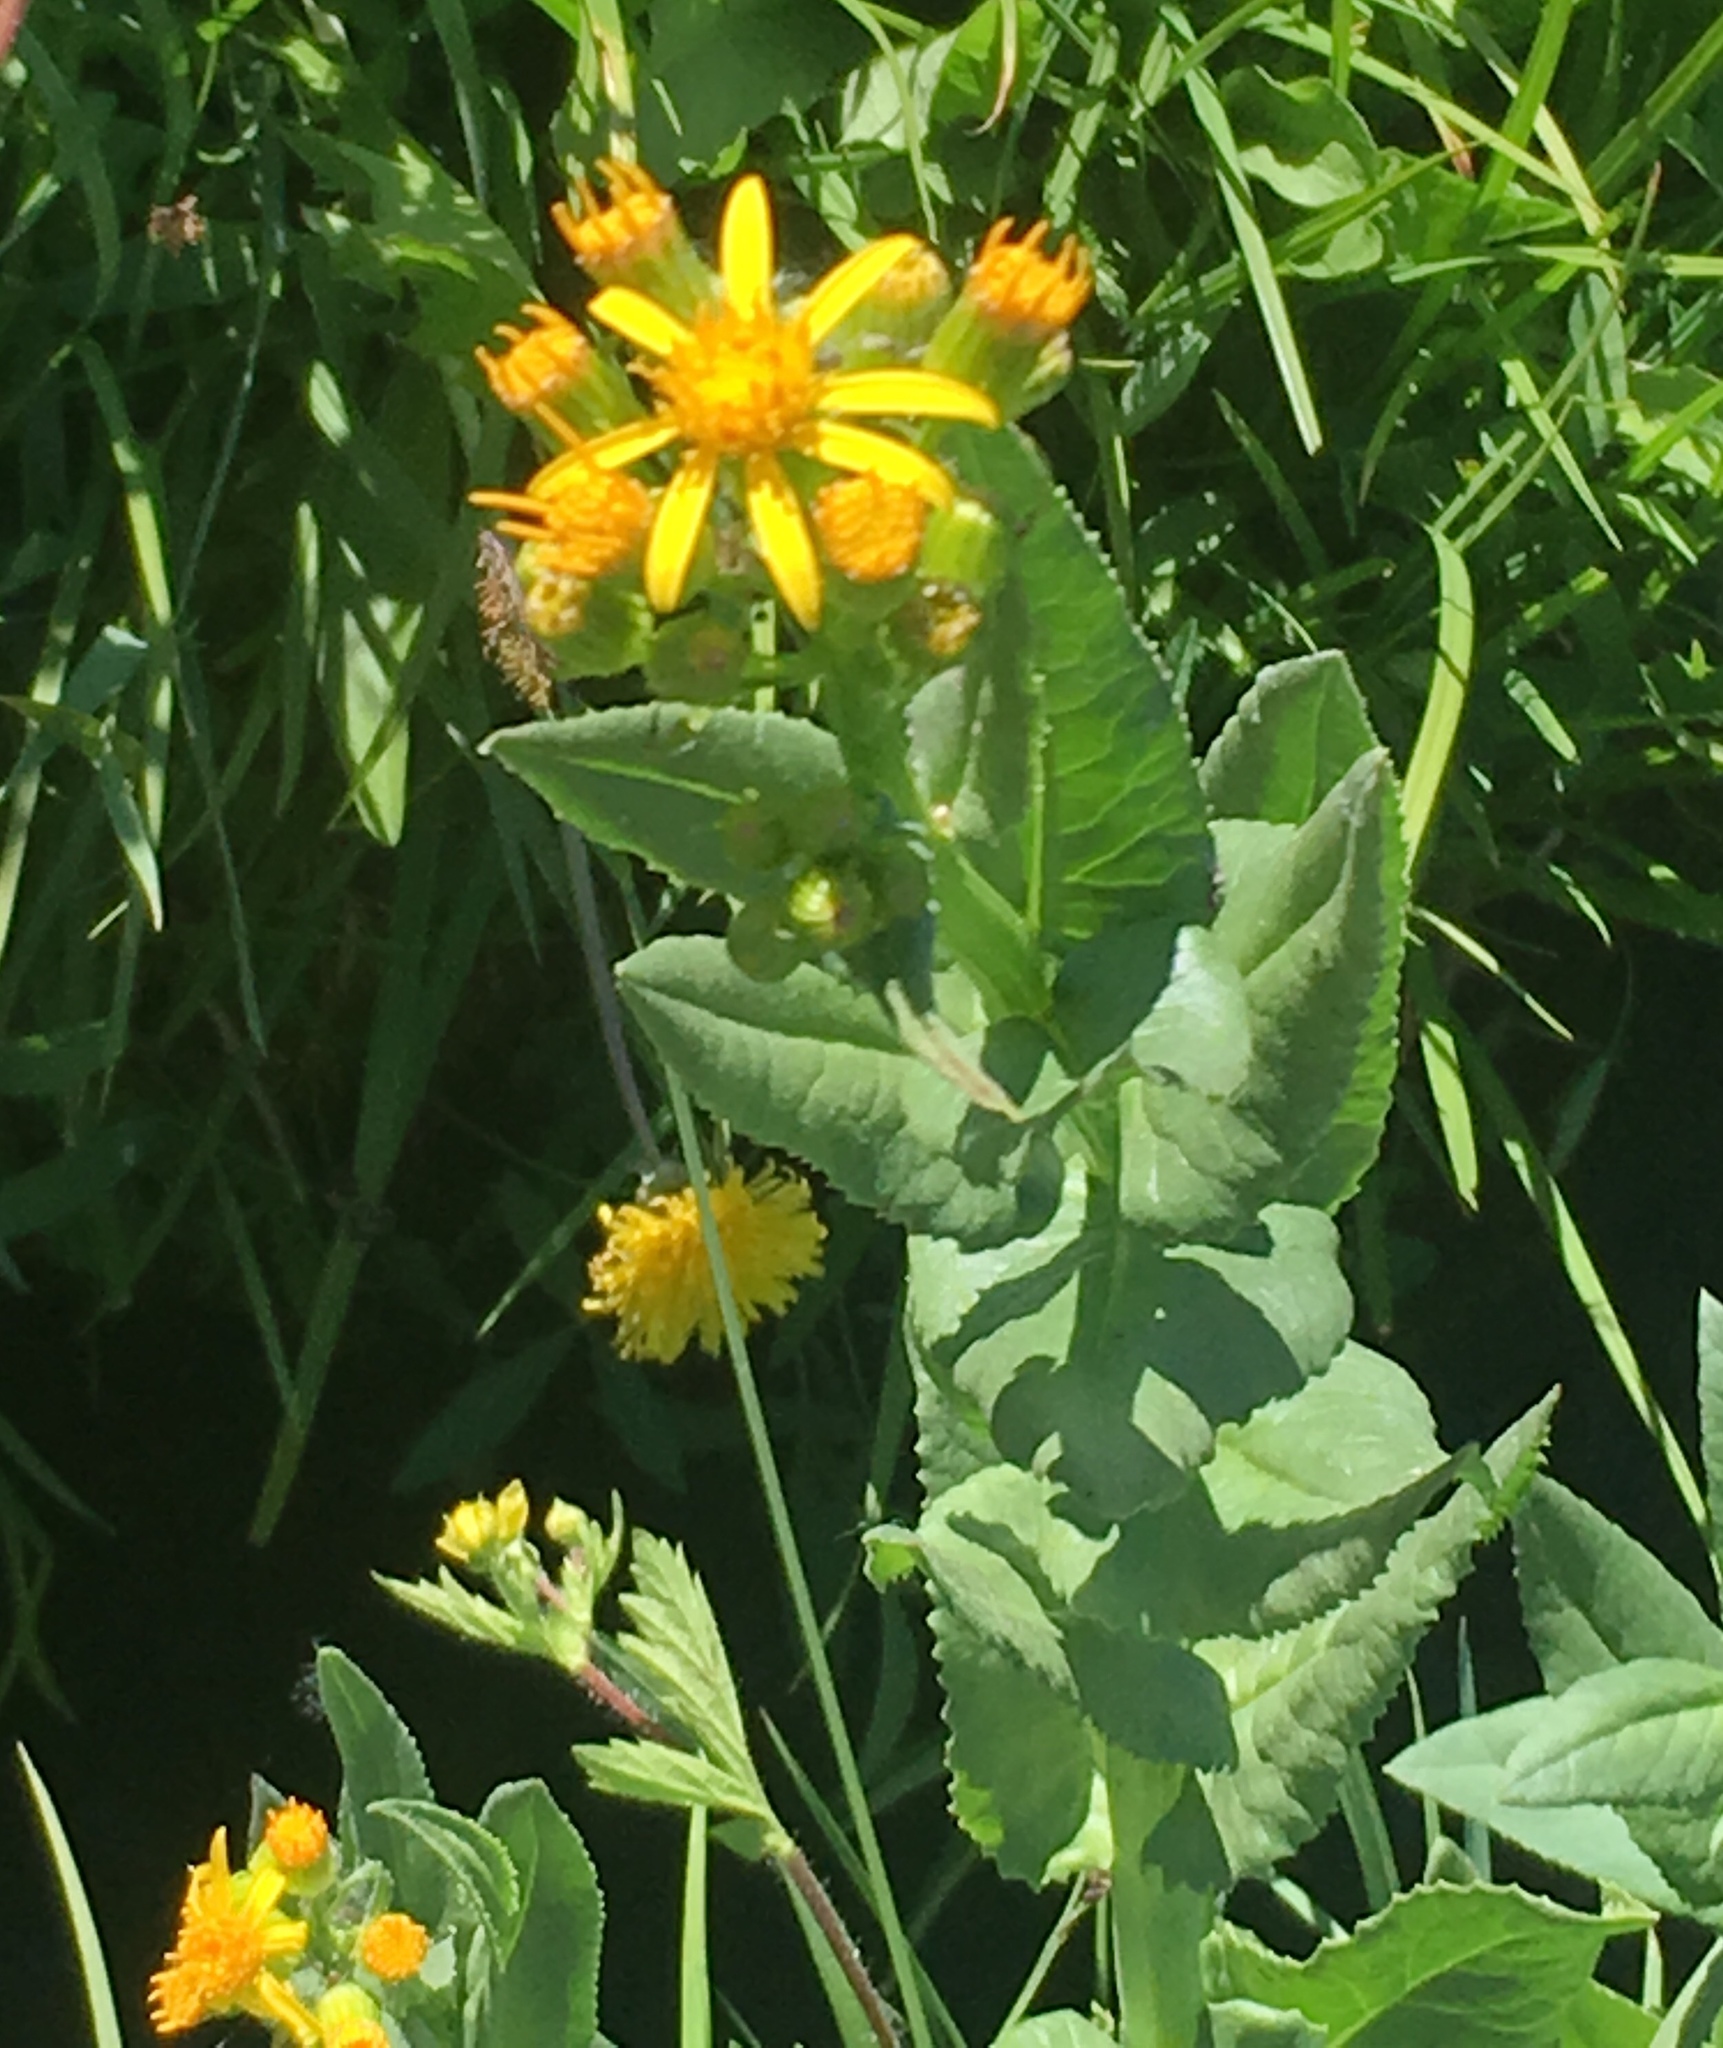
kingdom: Plantae
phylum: Tracheophyta
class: Magnoliopsida
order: Asterales
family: Asteraceae
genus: Senecio
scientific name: Senecio triangularis
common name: Arrowleaf butterweed
